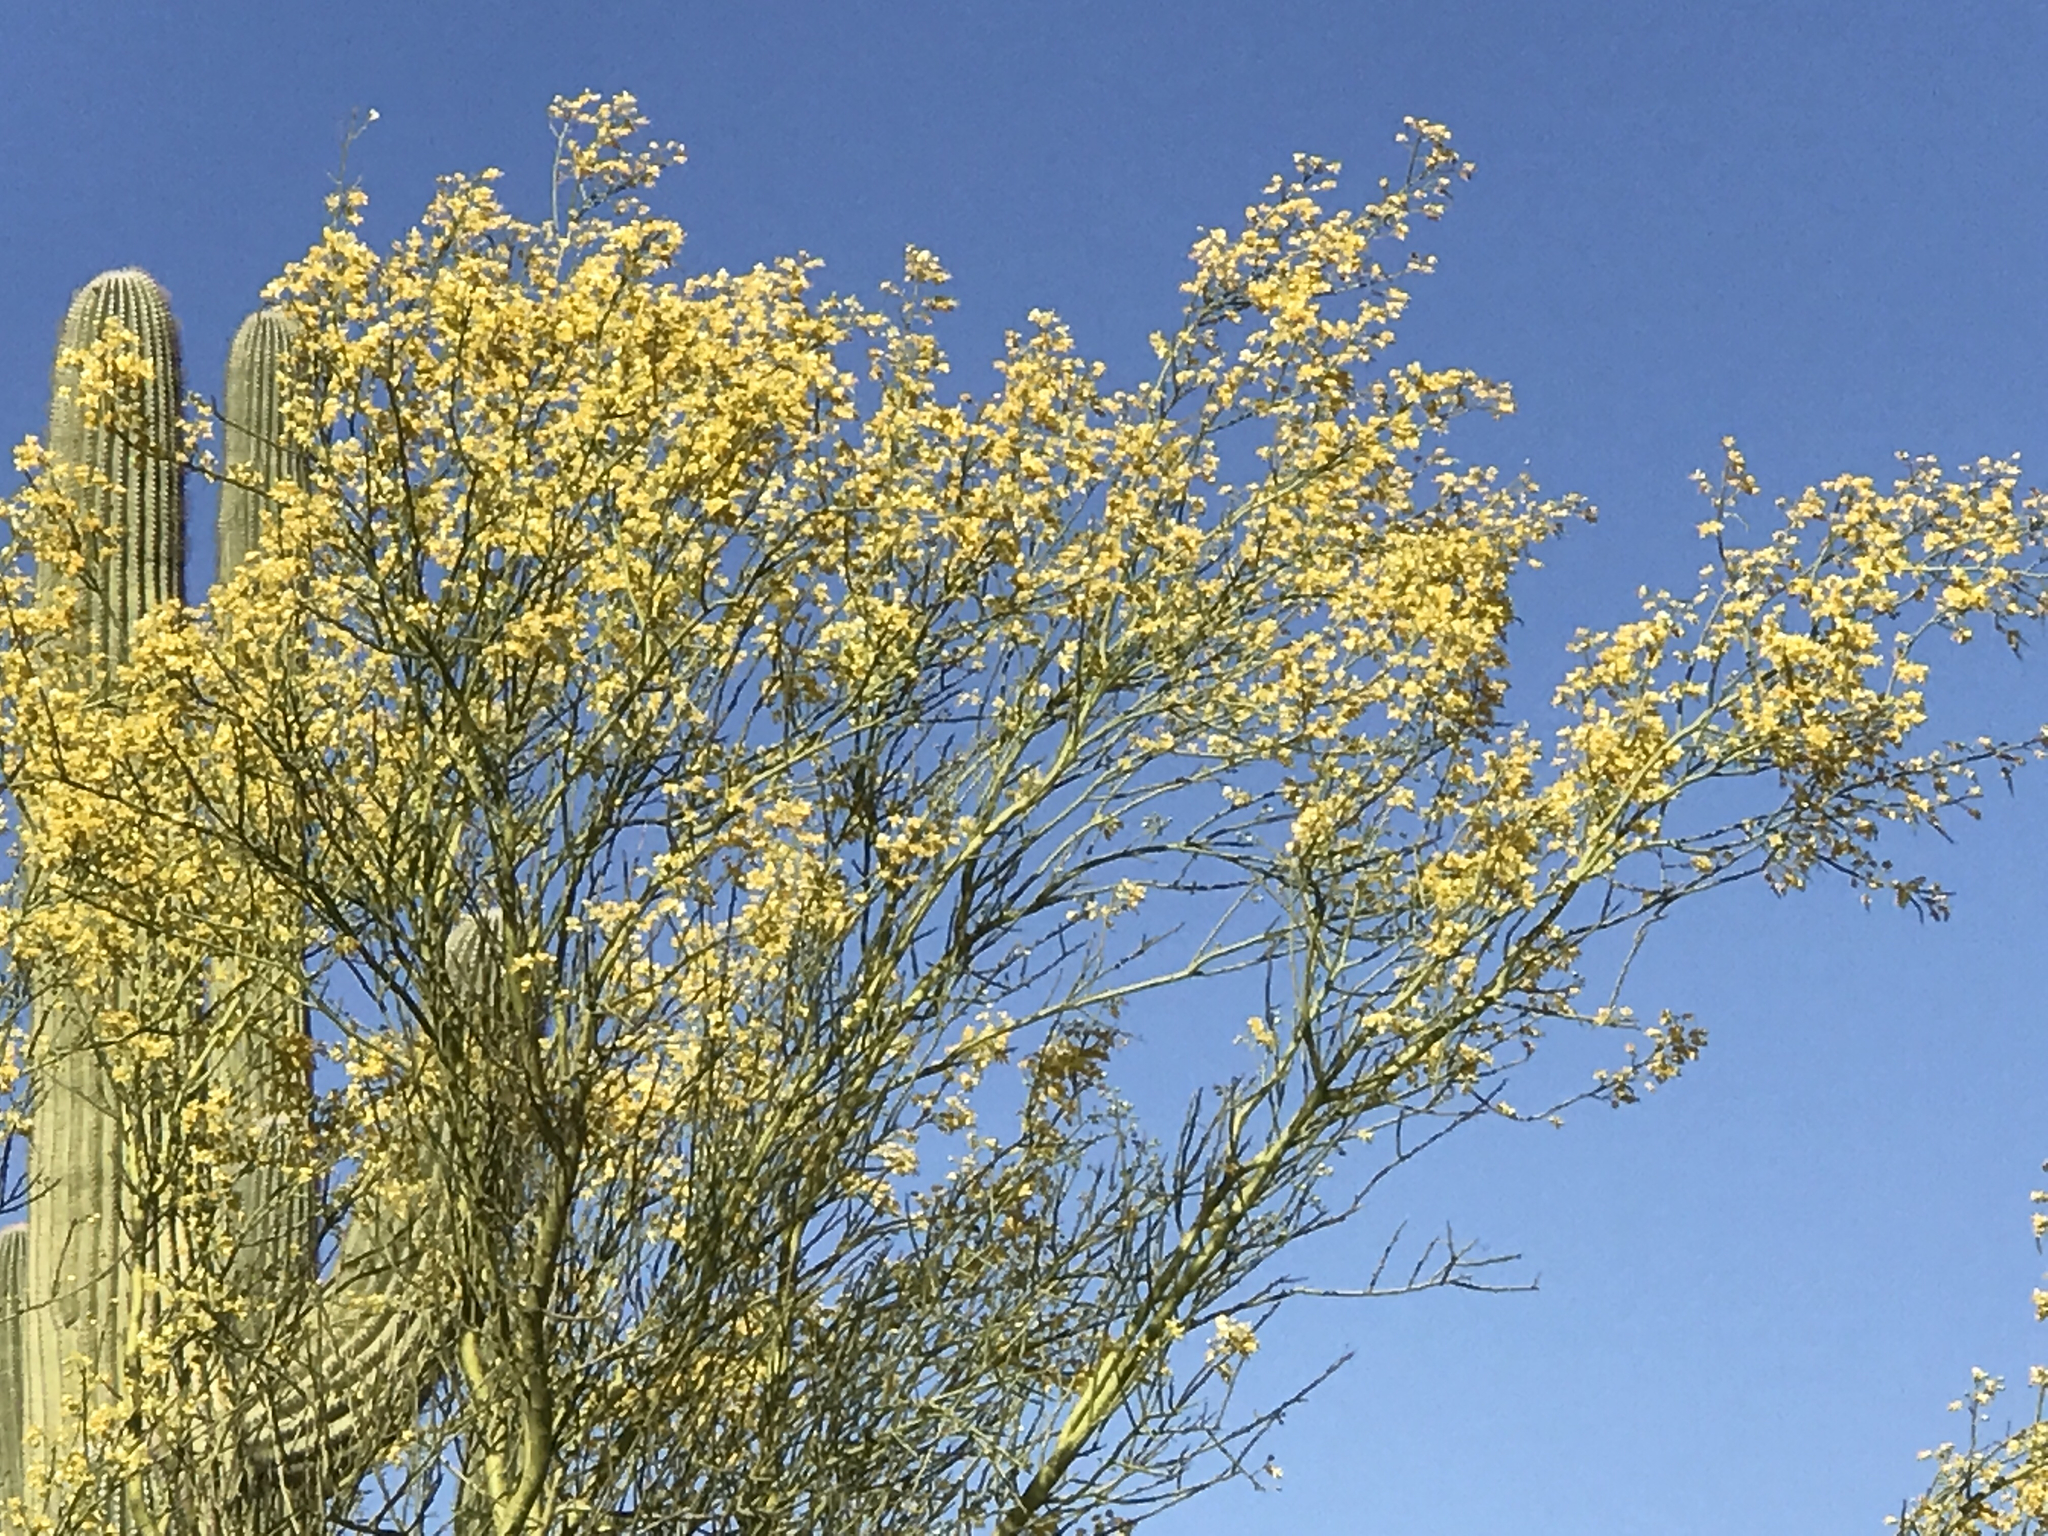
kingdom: Plantae
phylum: Tracheophyta
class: Magnoliopsida
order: Fabales
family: Fabaceae
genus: Parkinsonia
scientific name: Parkinsonia microphylla
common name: Yellow paloverde
